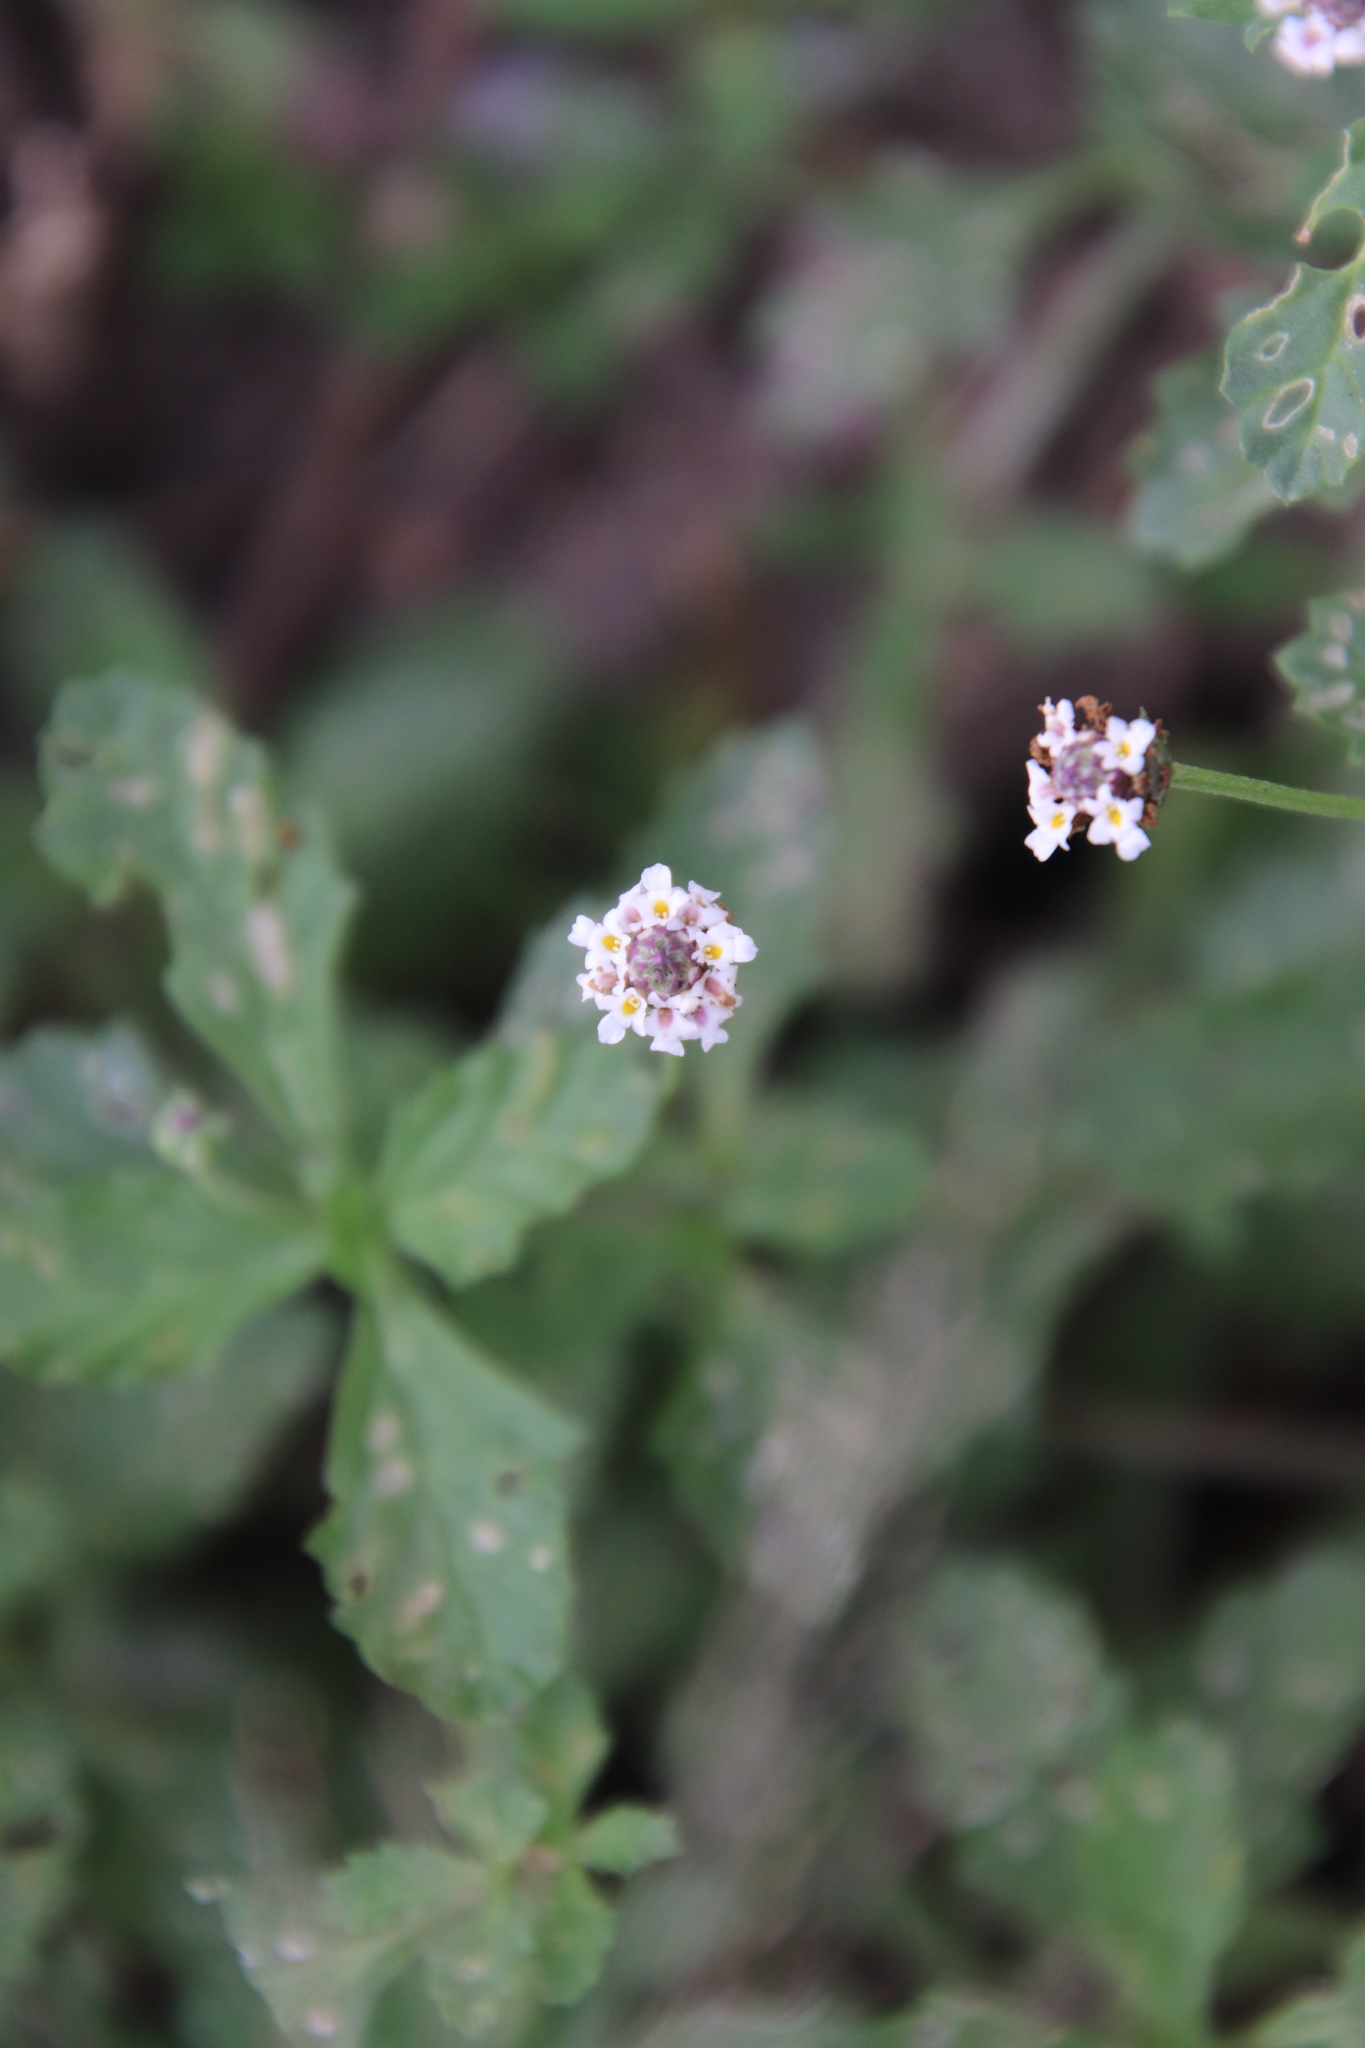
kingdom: Plantae
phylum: Tracheophyta
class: Magnoliopsida
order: Lamiales
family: Verbenaceae
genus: Phyla
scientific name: Phyla nodiflora
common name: Frogfruit
